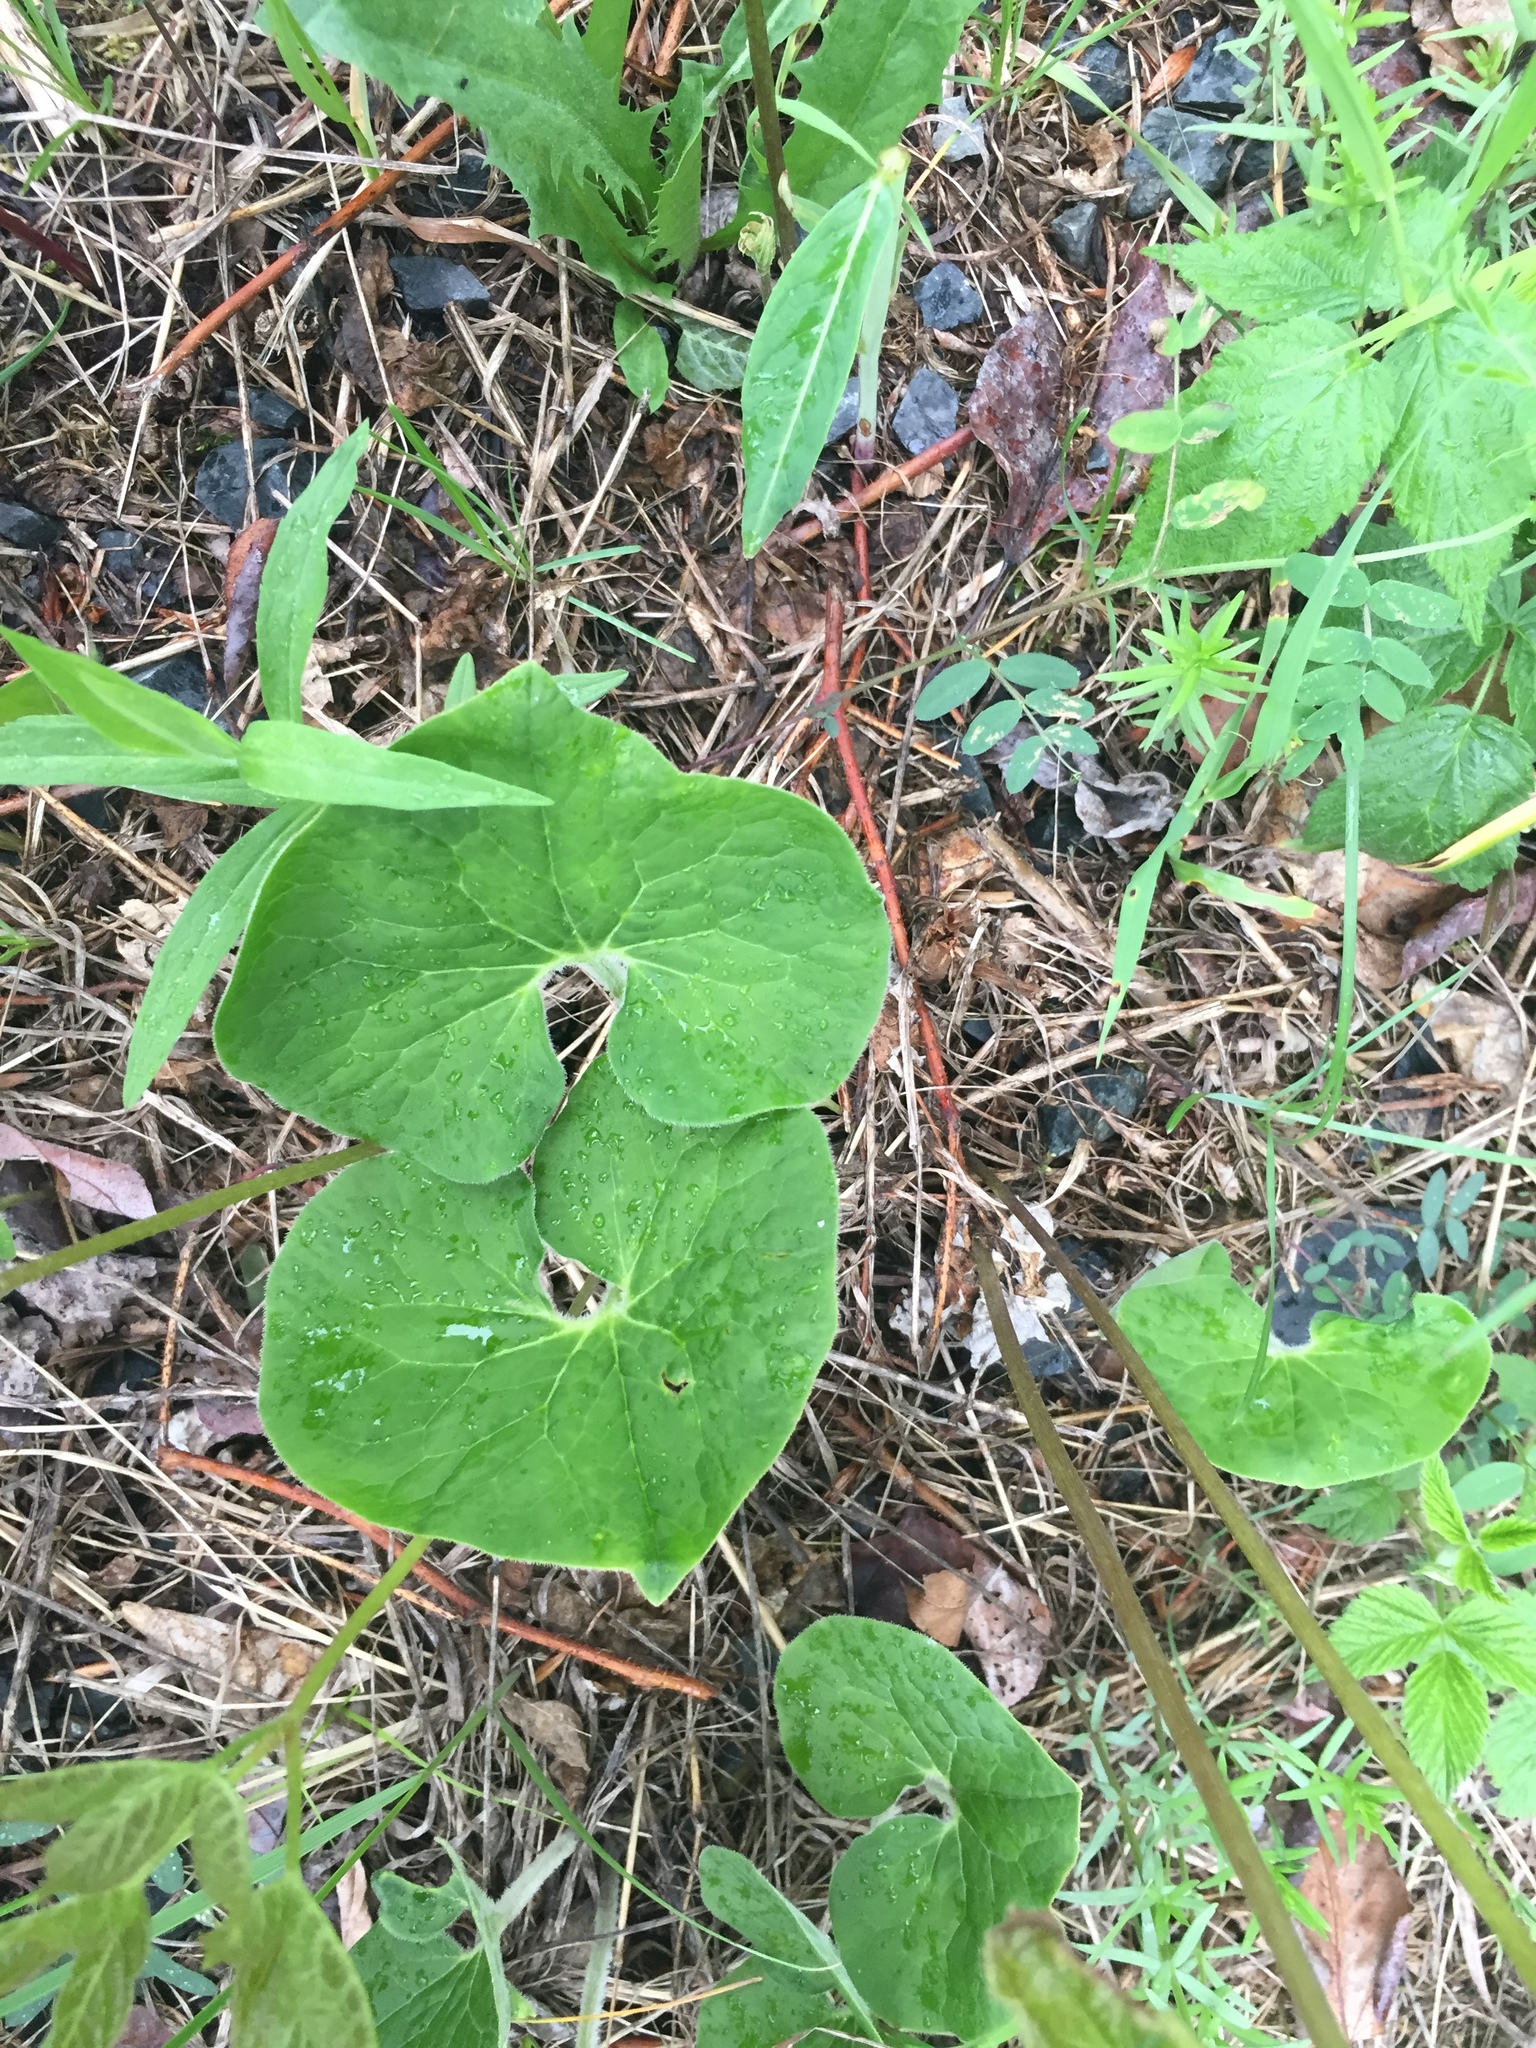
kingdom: Plantae
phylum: Tracheophyta
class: Magnoliopsida
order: Piperales
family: Aristolochiaceae
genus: Asarum
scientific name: Asarum canadense
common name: Wild ginger
